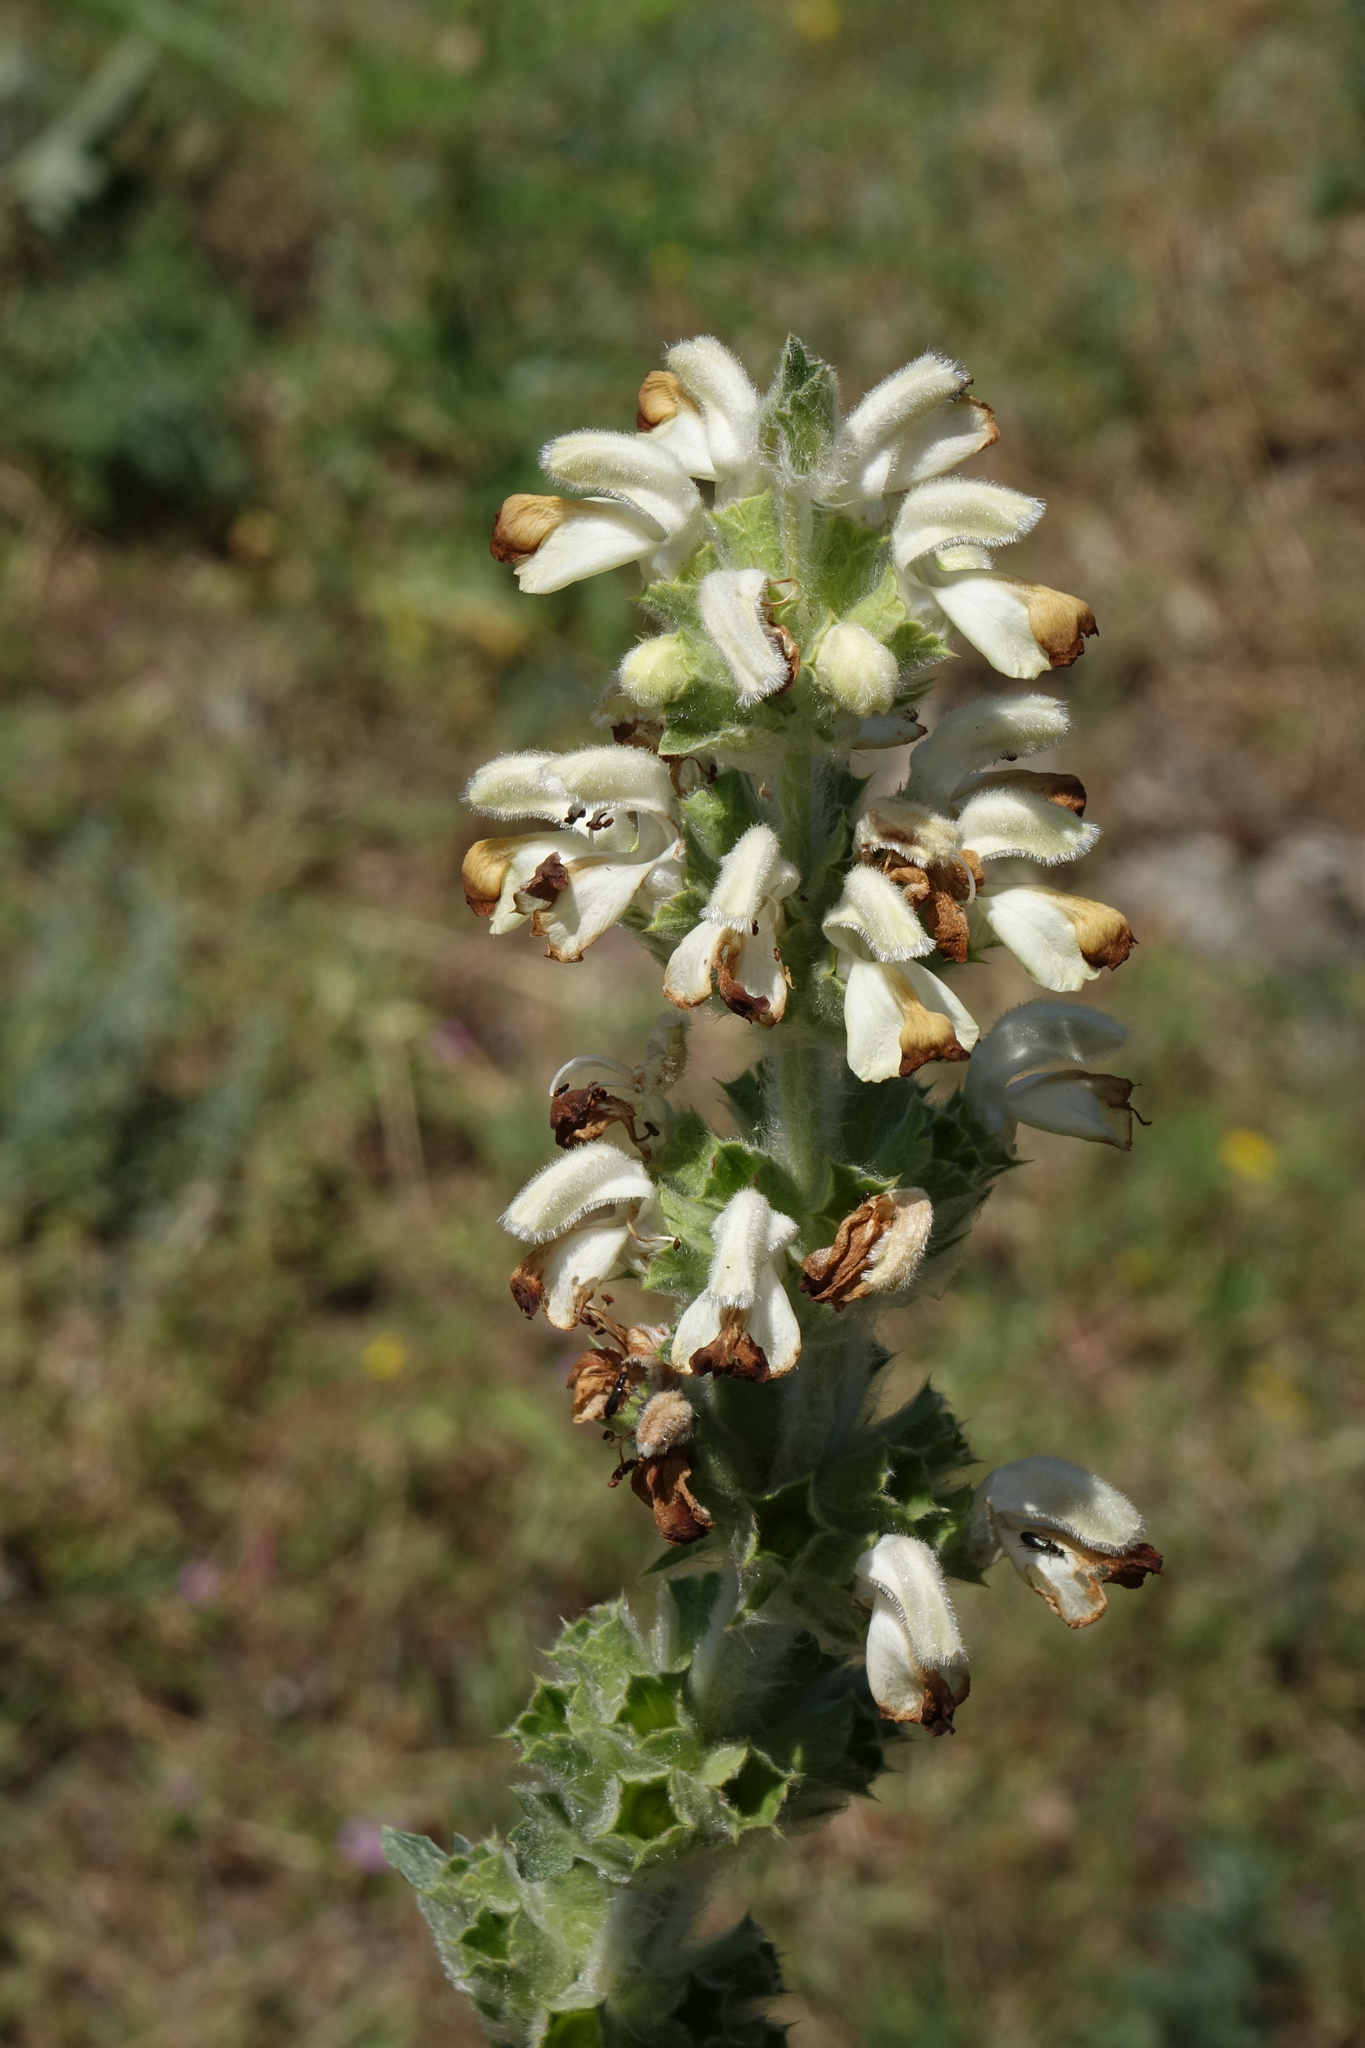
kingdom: Plantae
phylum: Tracheophyta
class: Magnoliopsida
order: Lamiales
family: Lamiaceae
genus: Phlomoides
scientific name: Phlomoides laciniata
